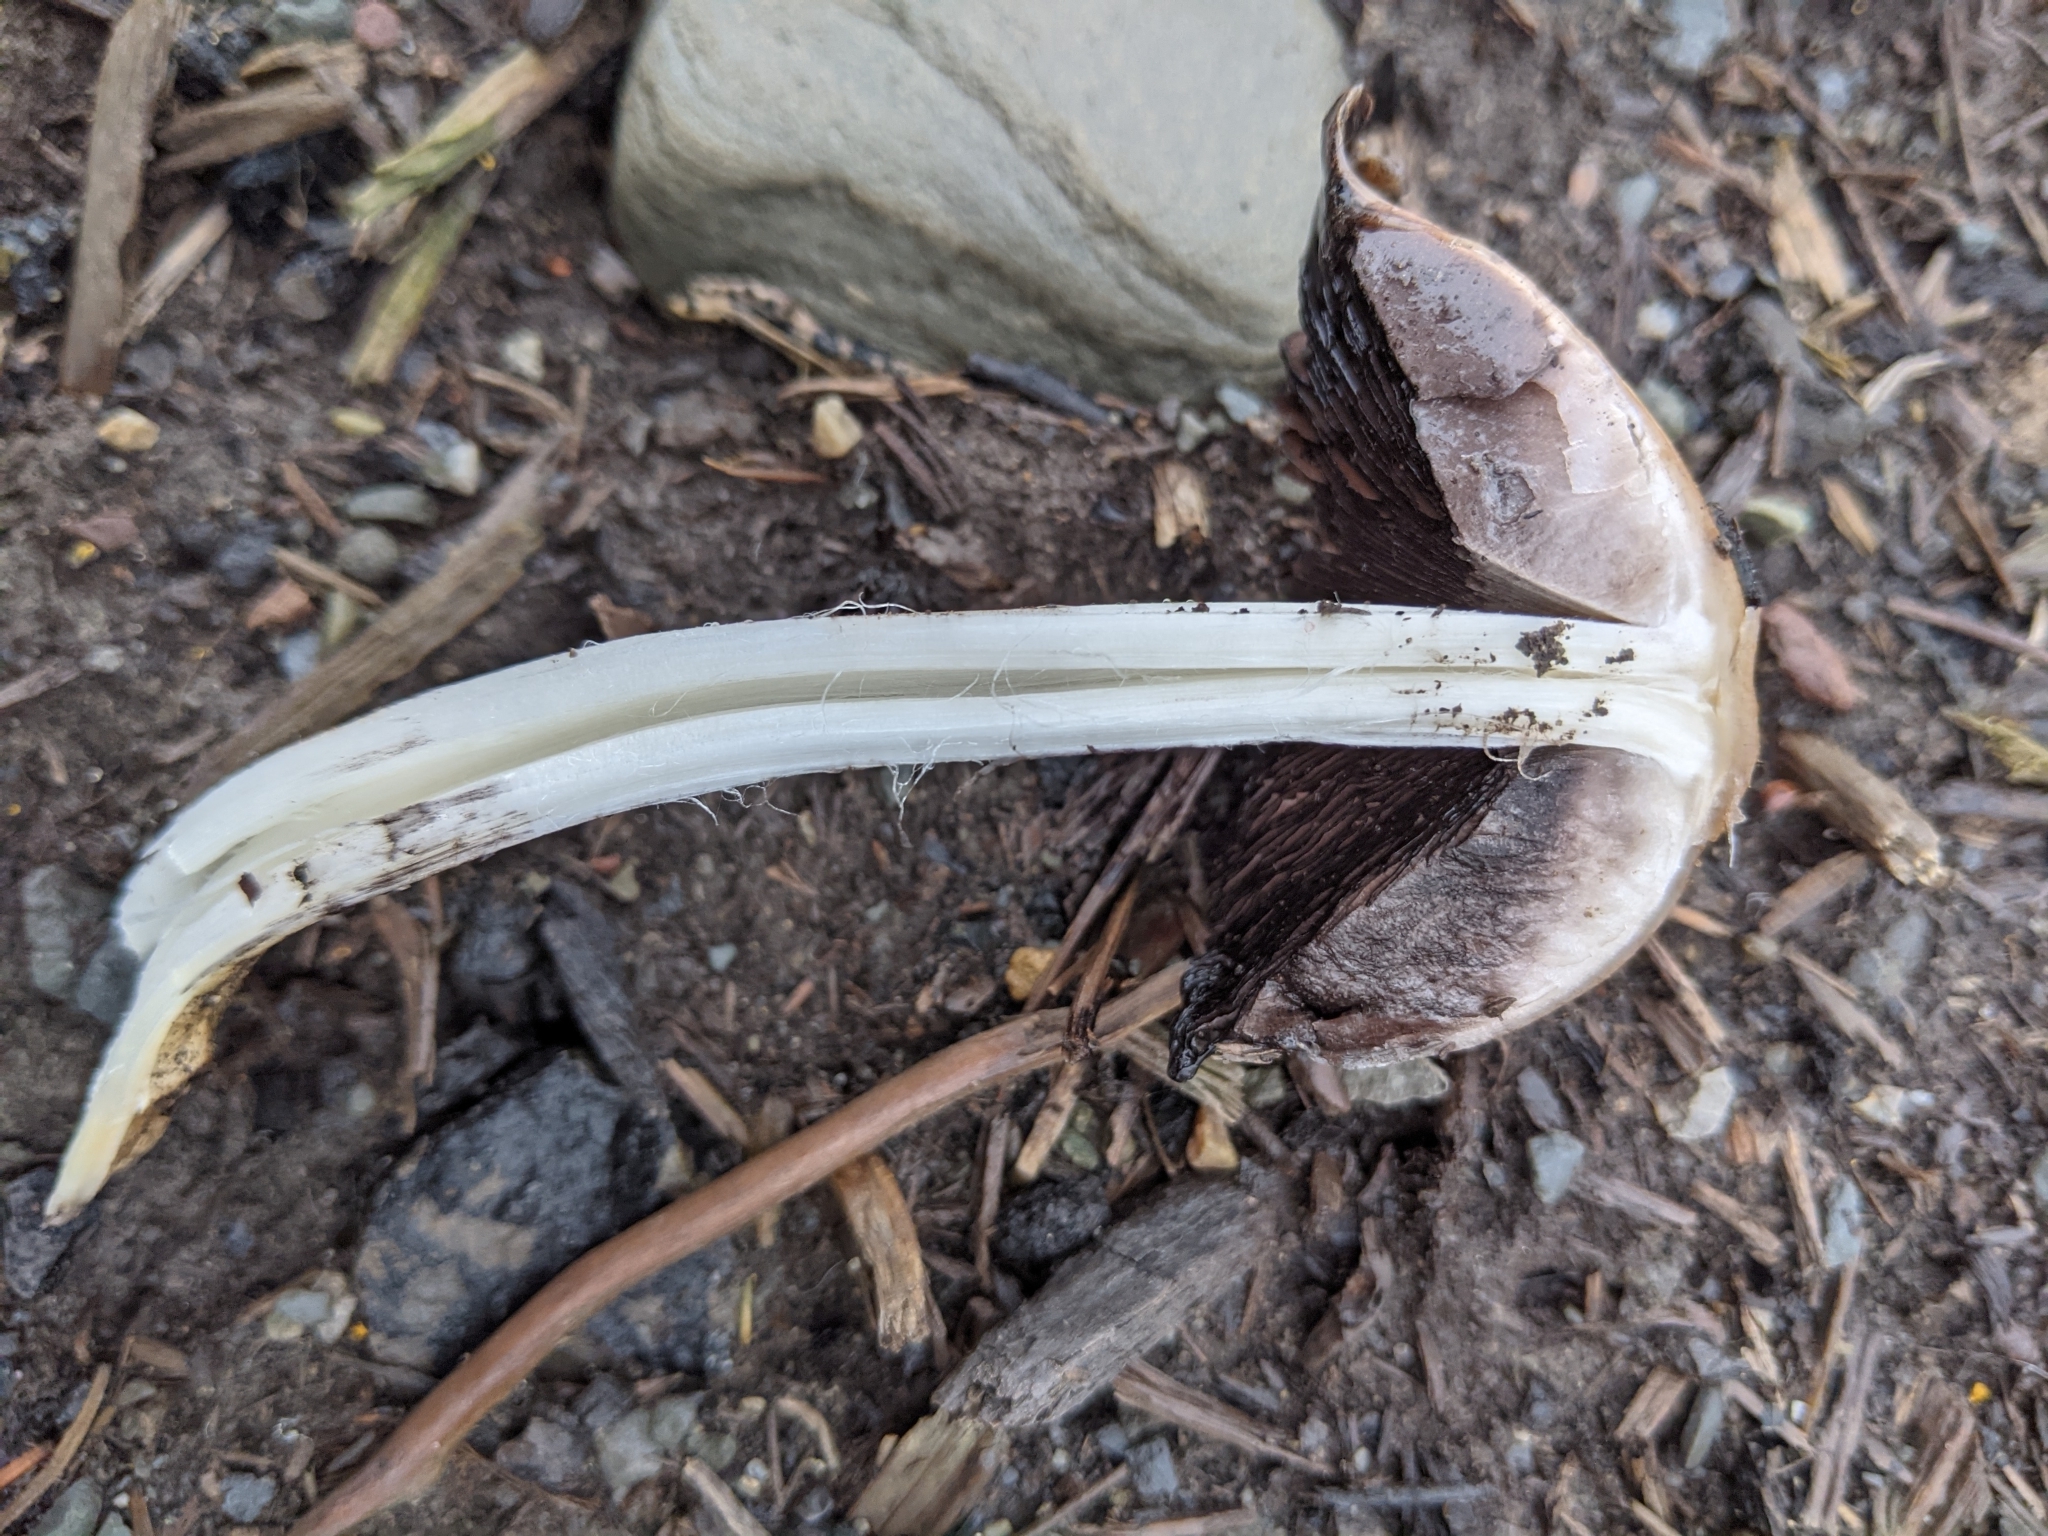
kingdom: Fungi
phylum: Basidiomycota
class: Agaricomycetes
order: Agaricales
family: Psathyrellaceae
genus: Coprinopsis
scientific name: Coprinopsis atramentaria
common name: Common ink-cap
